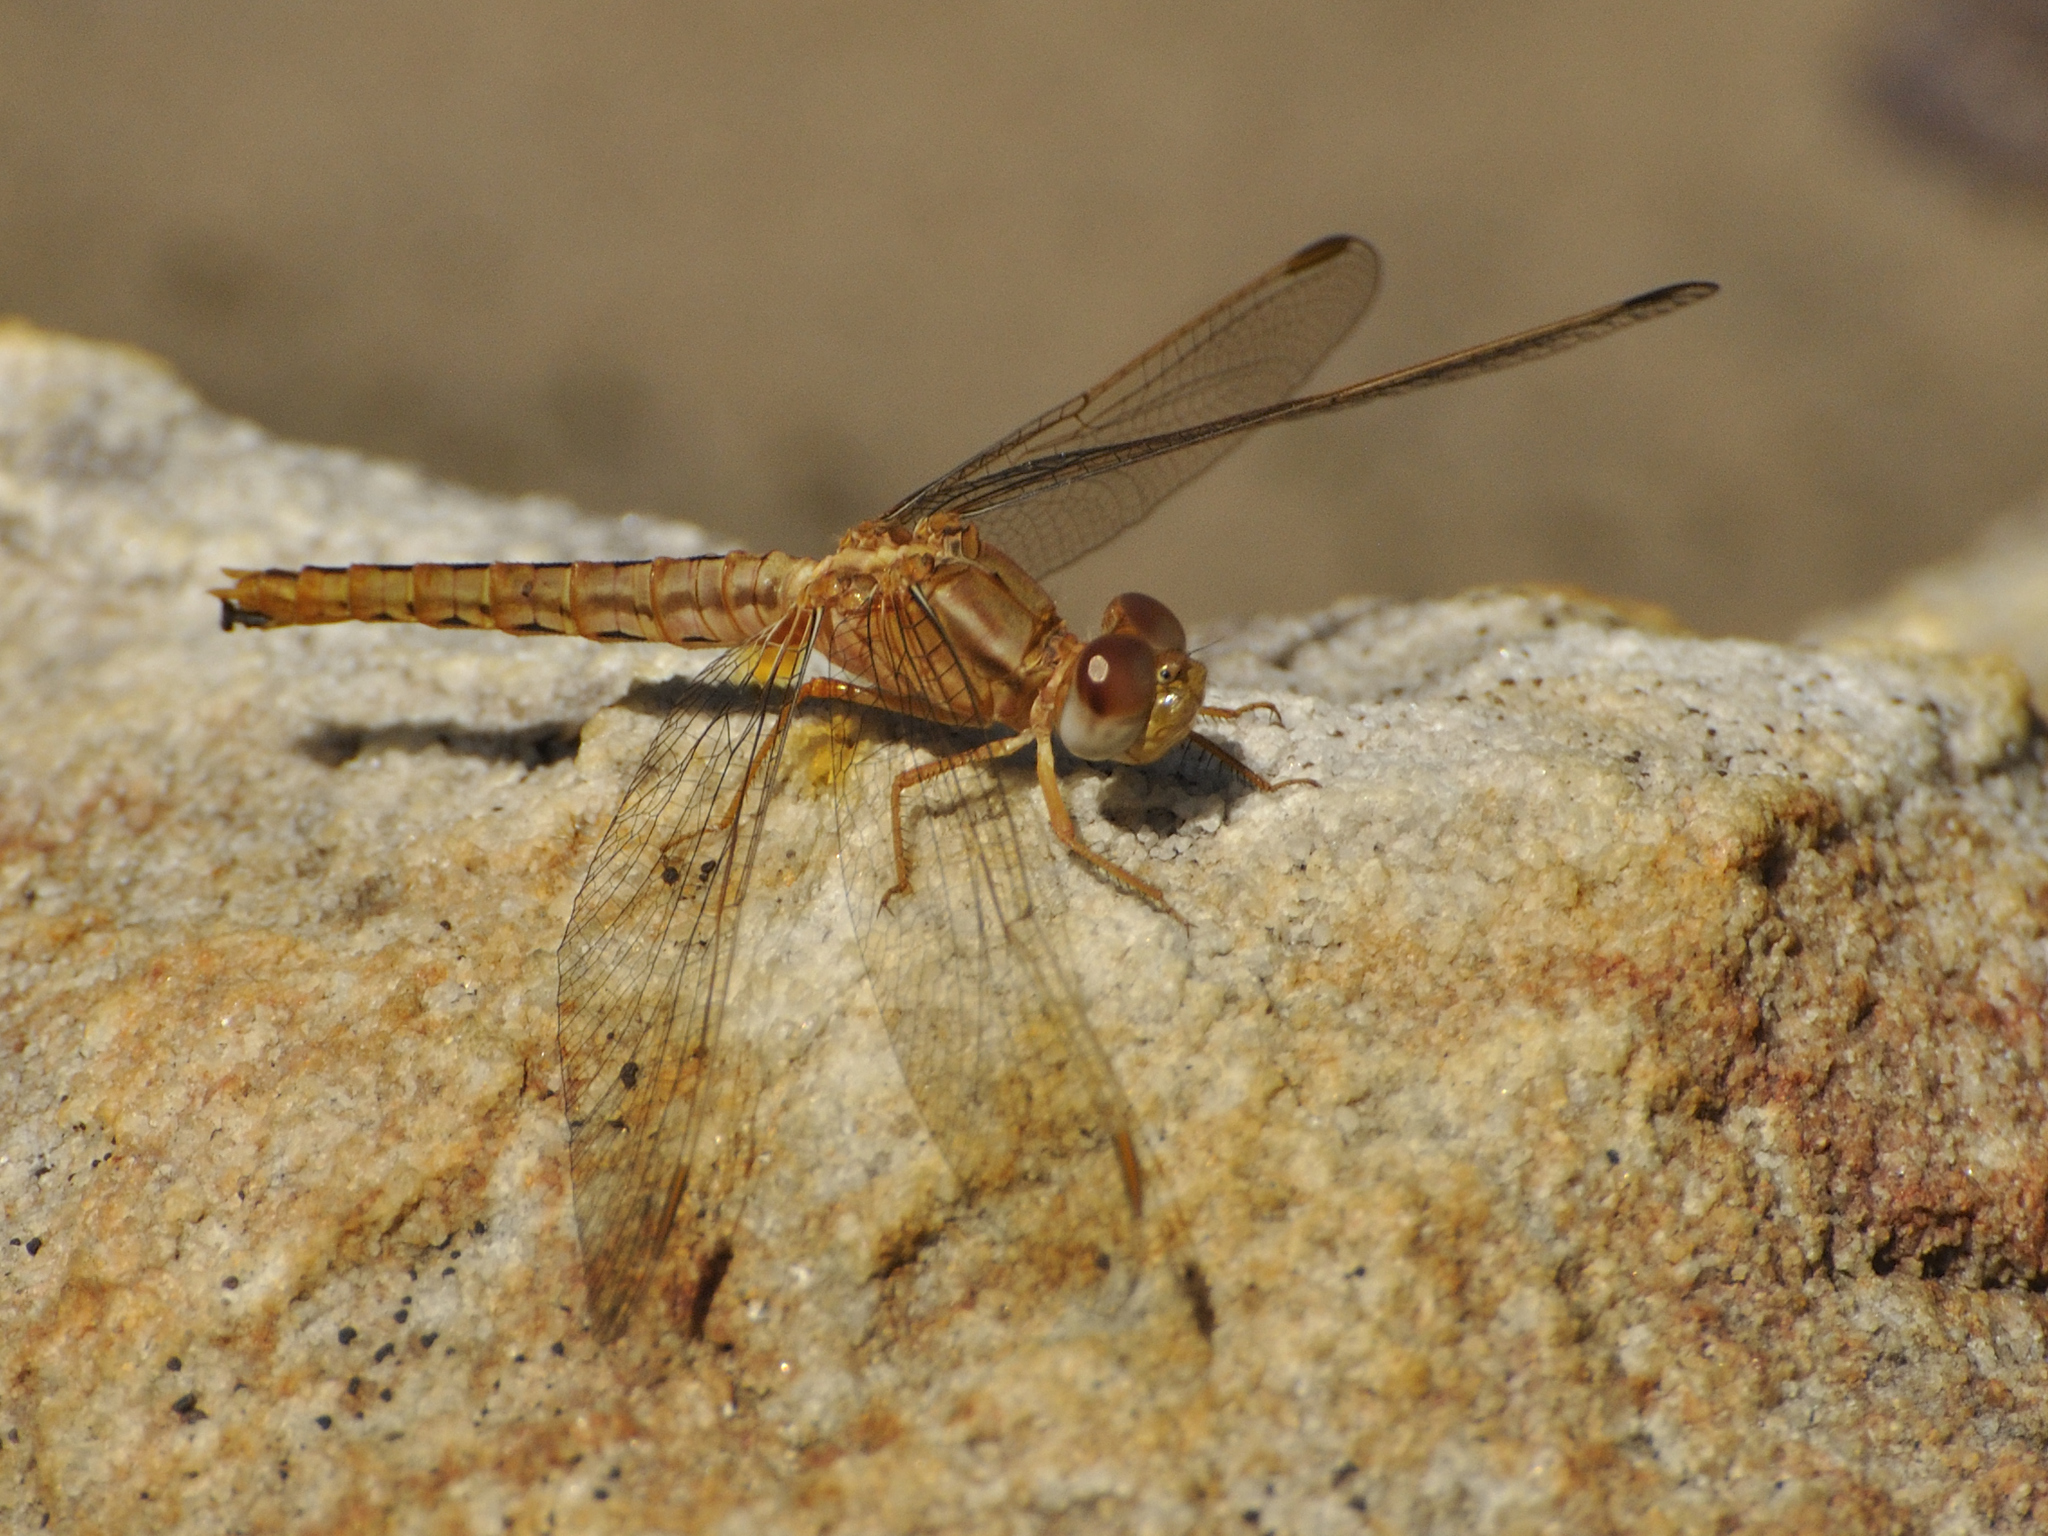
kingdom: Animalia
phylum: Arthropoda
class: Insecta
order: Odonata
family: Libellulidae
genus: Crocothemis
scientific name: Crocothemis sanguinolenta
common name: Little scarlet
